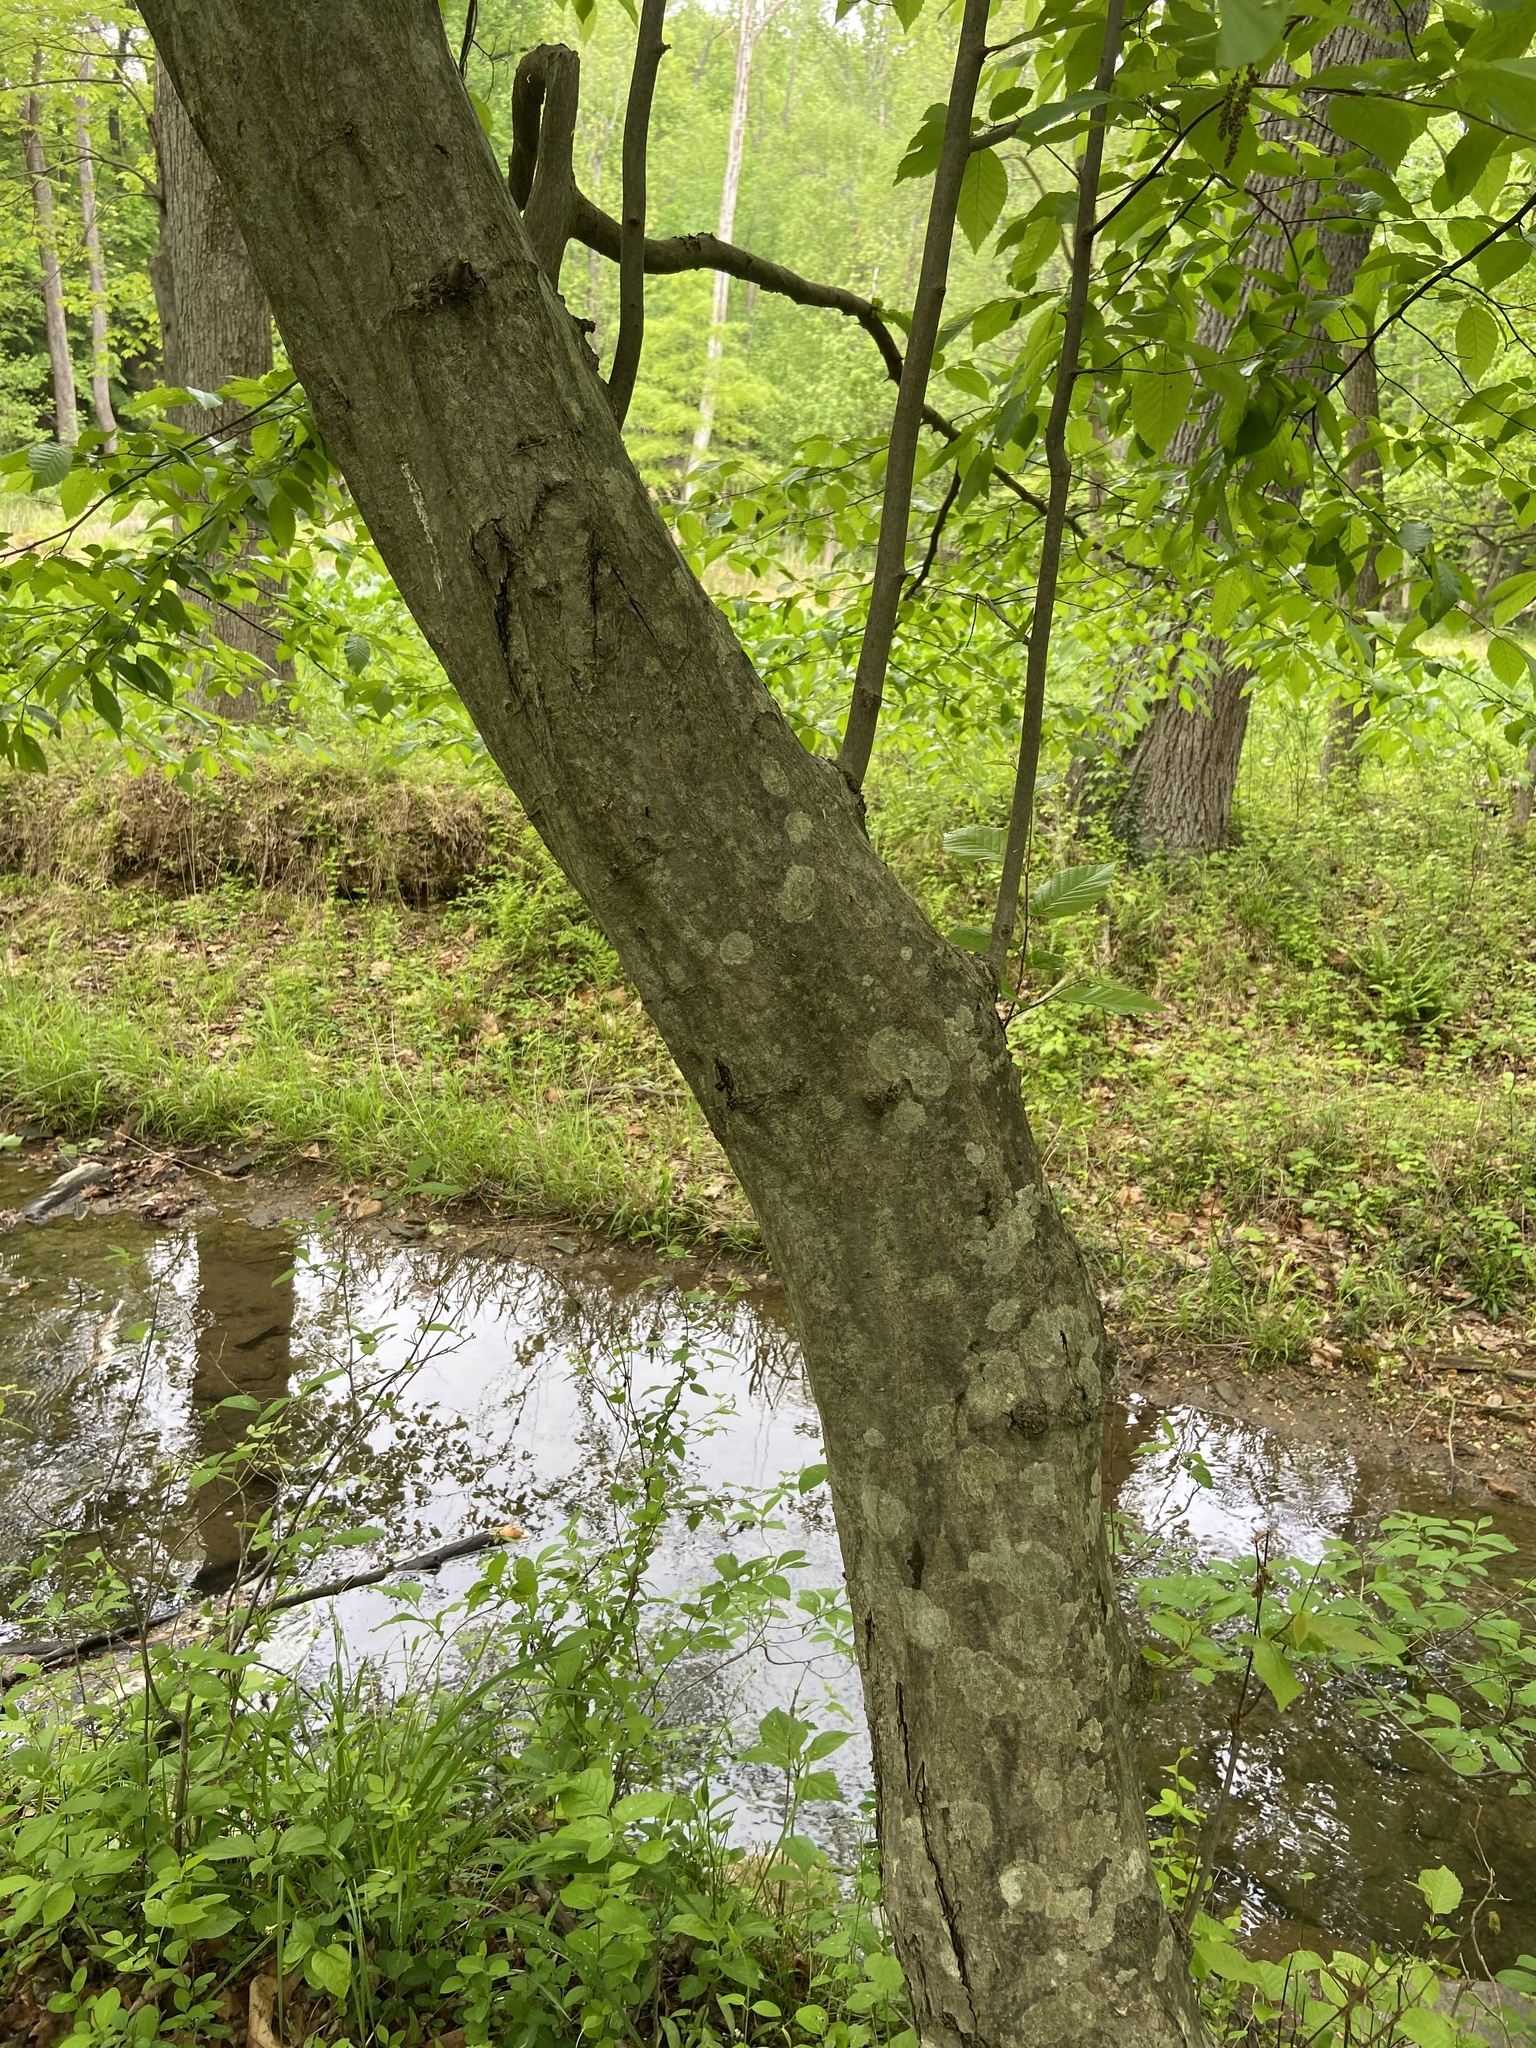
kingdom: Plantae
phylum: Tracheophyta
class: Magnoliopsida
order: Fagales
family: Betulaceae
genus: Carpinus
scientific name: Carpinus caroliniana
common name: American hornbeam
